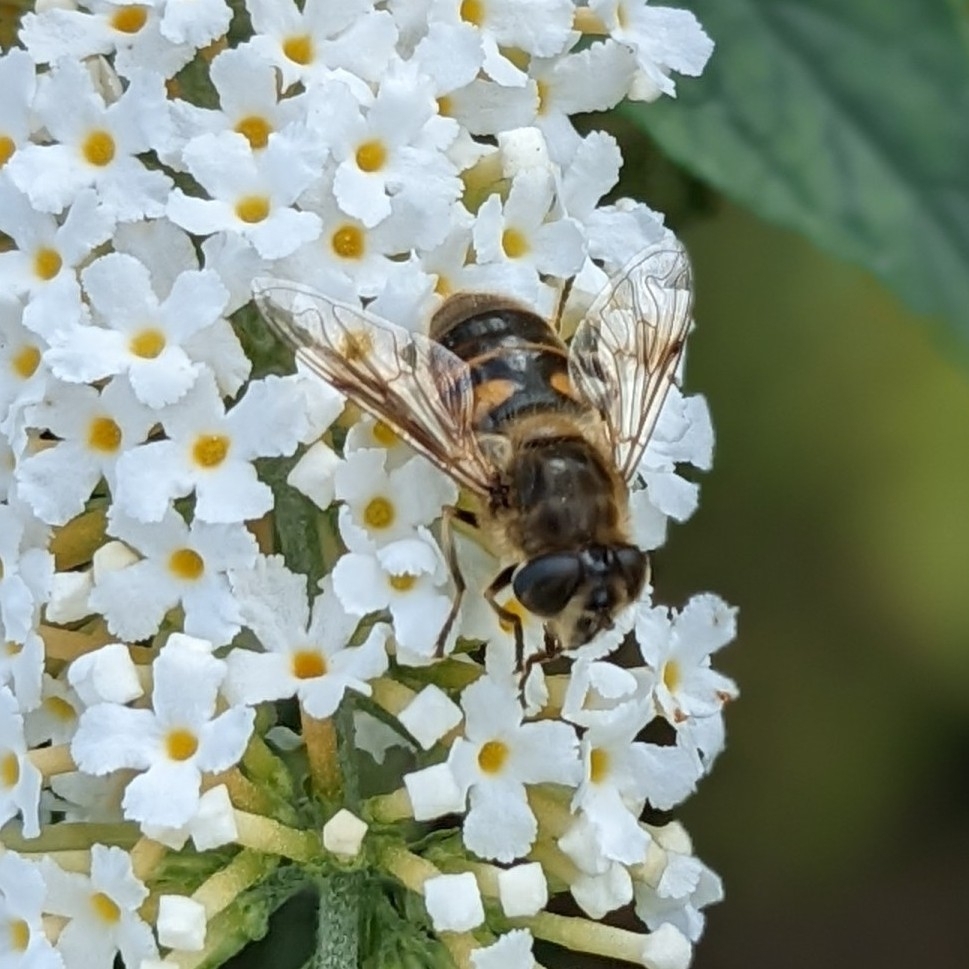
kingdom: Animalia
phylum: Arthropoda
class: Insecta
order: Diptera
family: Syrphidae
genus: Eristalis
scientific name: Eristalis tenax
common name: Drone fly
